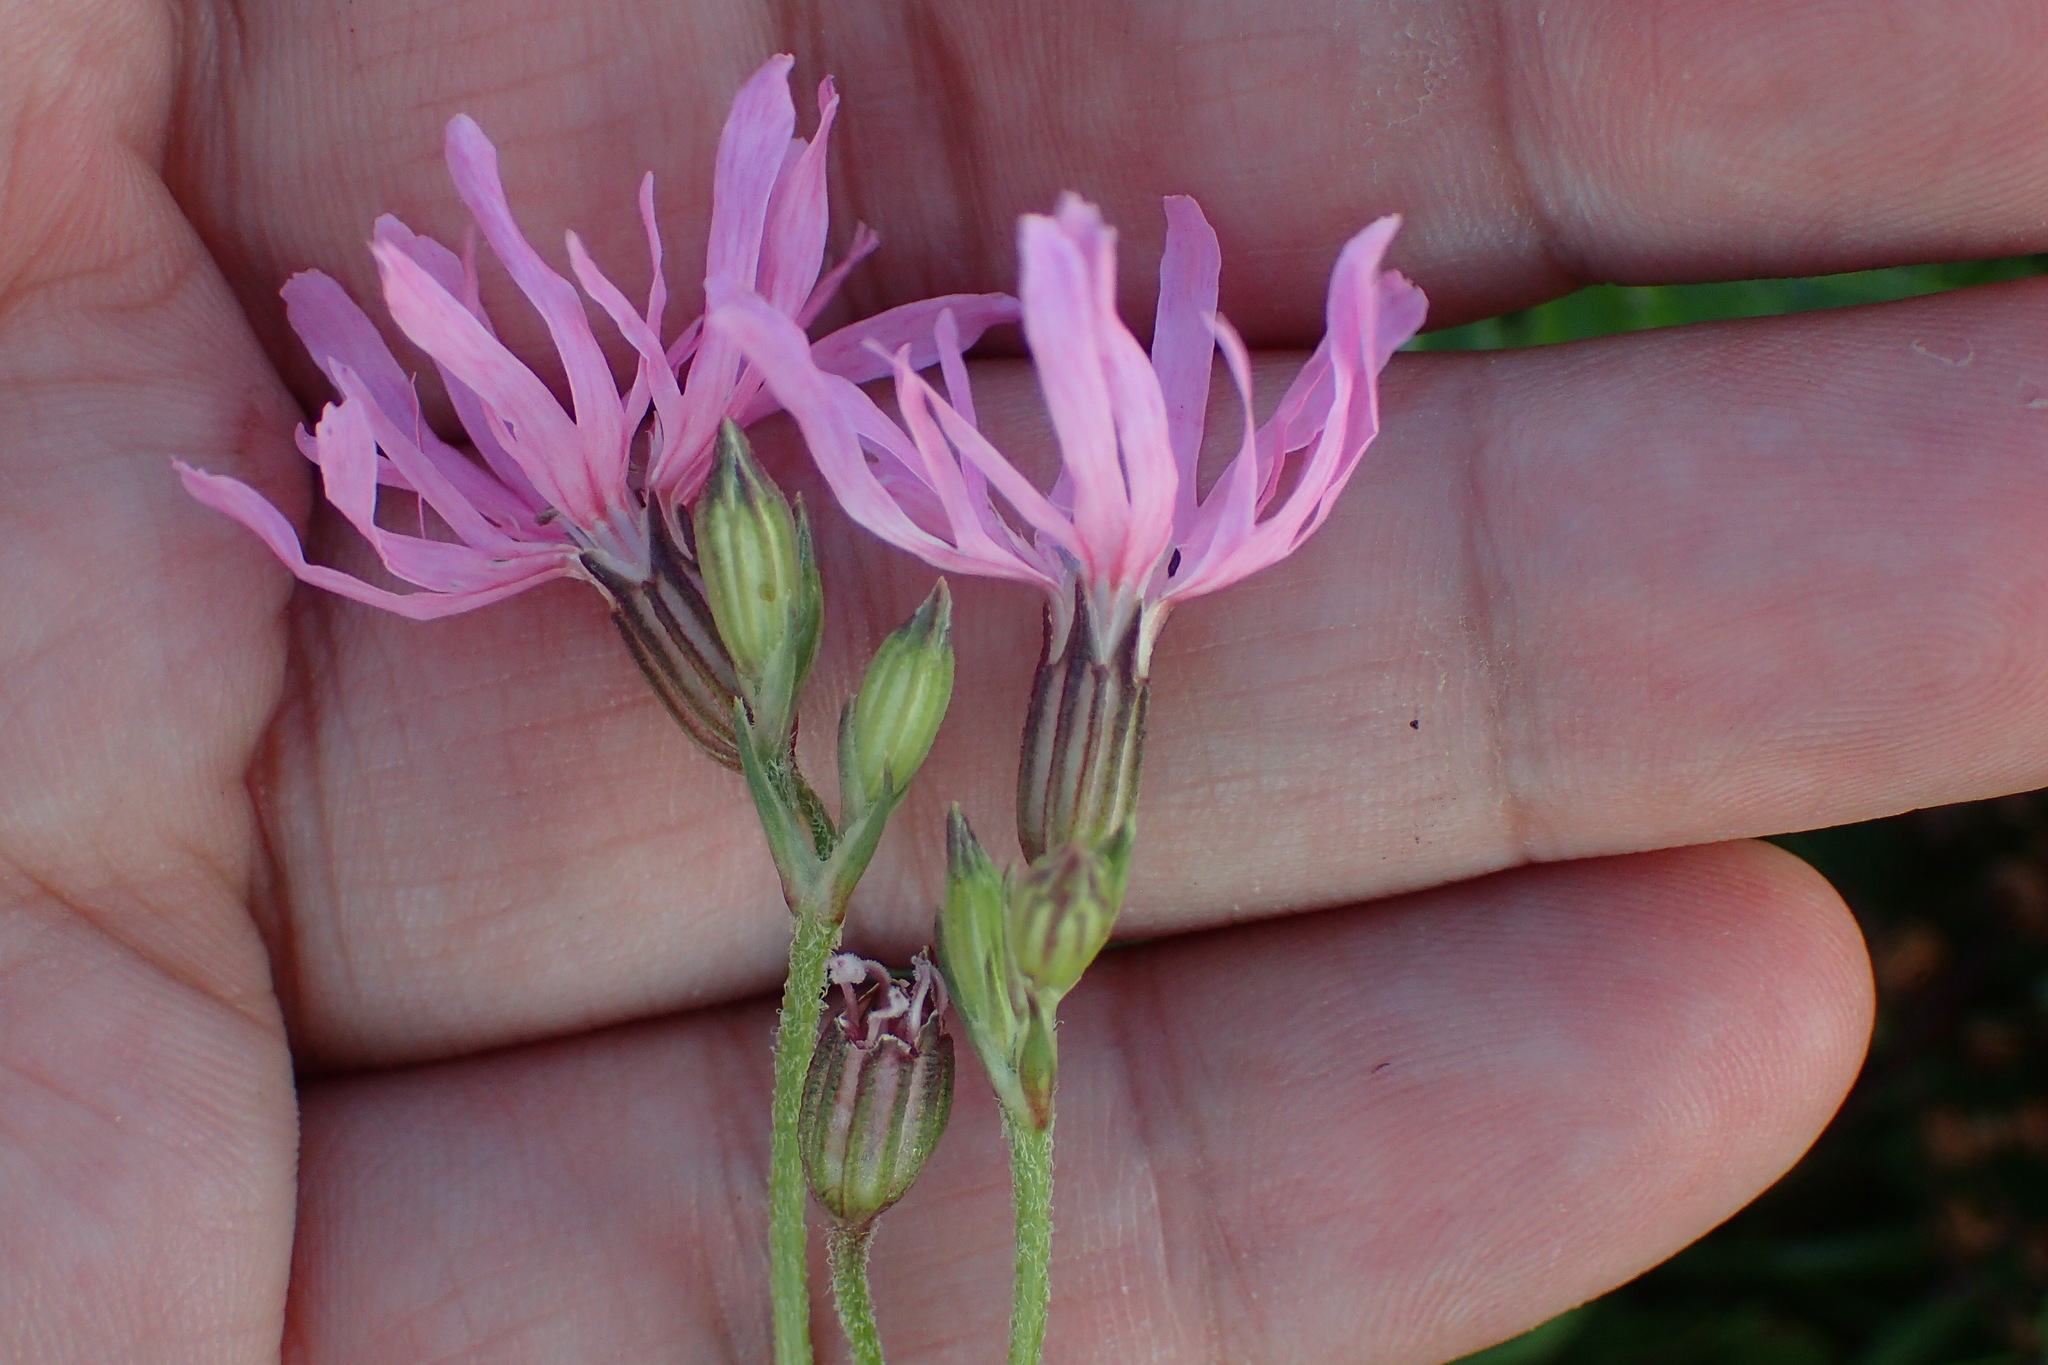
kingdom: Plantae
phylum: Tracheophyta
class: Magnoliopsida
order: Caryophyllales
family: Caryophyllaceae
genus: Silene
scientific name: Silene flos-cuculi
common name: Ragged-robin
